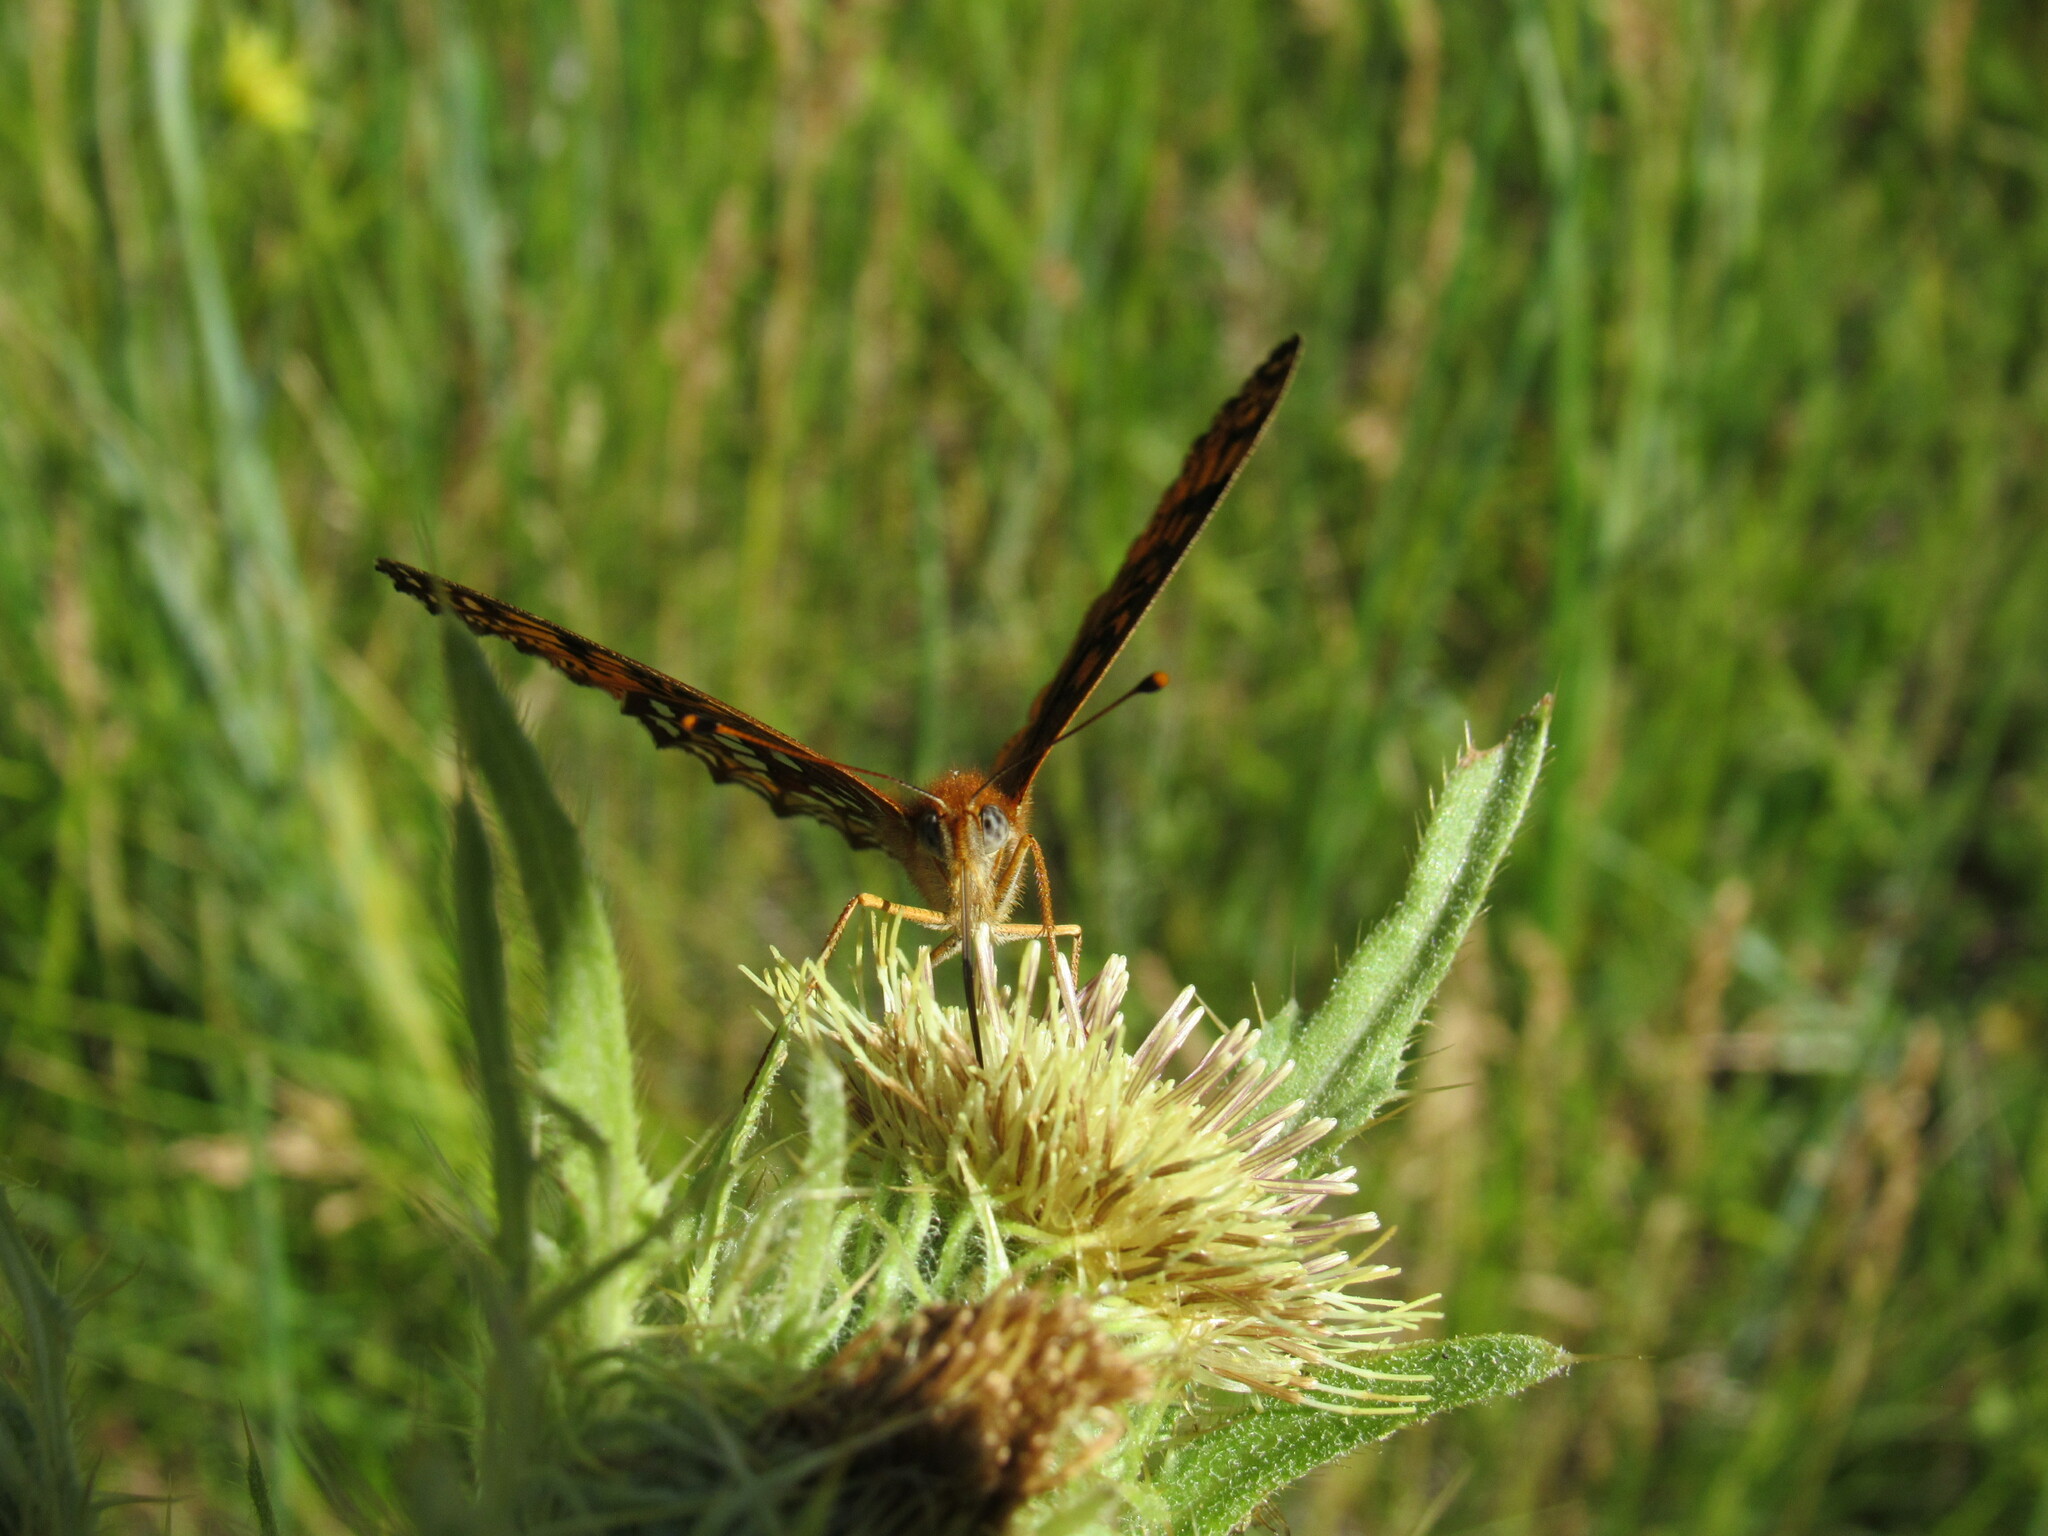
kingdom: Animalia
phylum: Arthropoda
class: Insecta
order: Lepidoptera
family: Nymphalidae
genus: Speyeria
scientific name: Speyeria atlantis
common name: Atlantis fritillary
